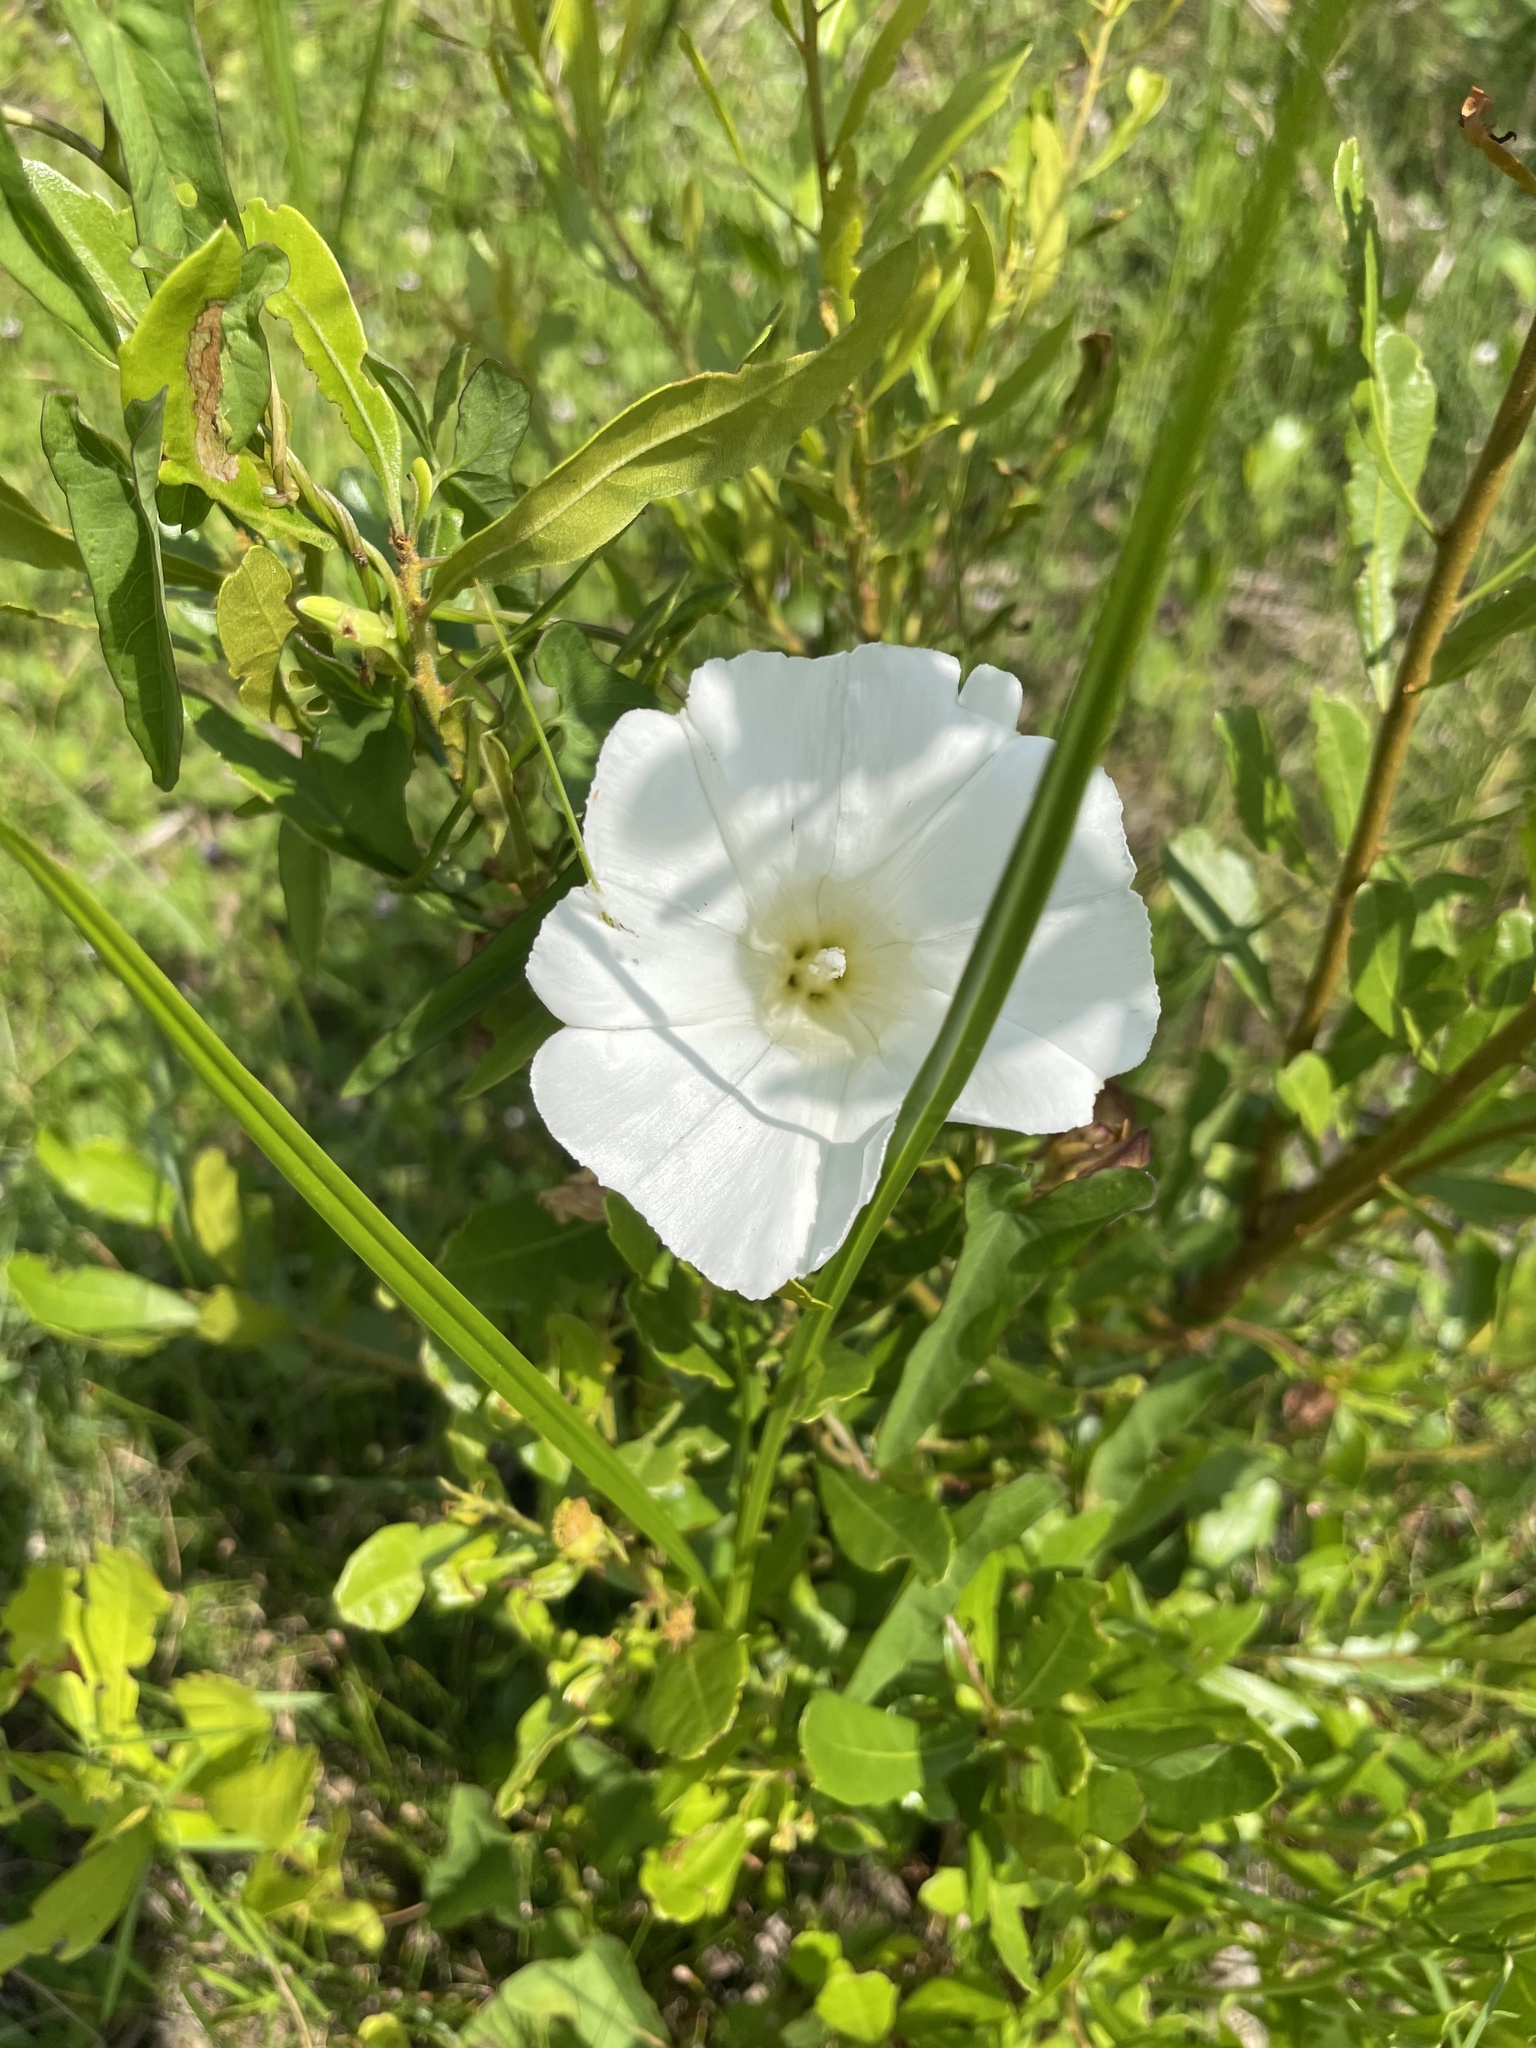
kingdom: Plantae
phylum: Tracheophyta
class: Magnoliopsida
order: Solanales
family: Convolvulaceae
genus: Ipomoea
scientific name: Ipomoea imperati
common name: Fiddle-leaf morning-glory
